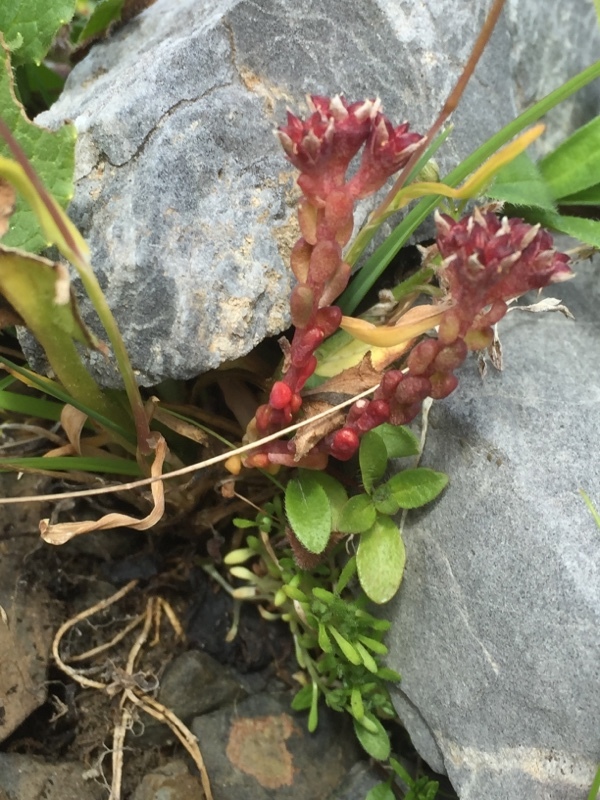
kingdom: Plantae
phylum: Tracheophyta
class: Magnoliopsida
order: Saxifragales
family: Crassulaceae
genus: Sedum
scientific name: Sedum atratum
